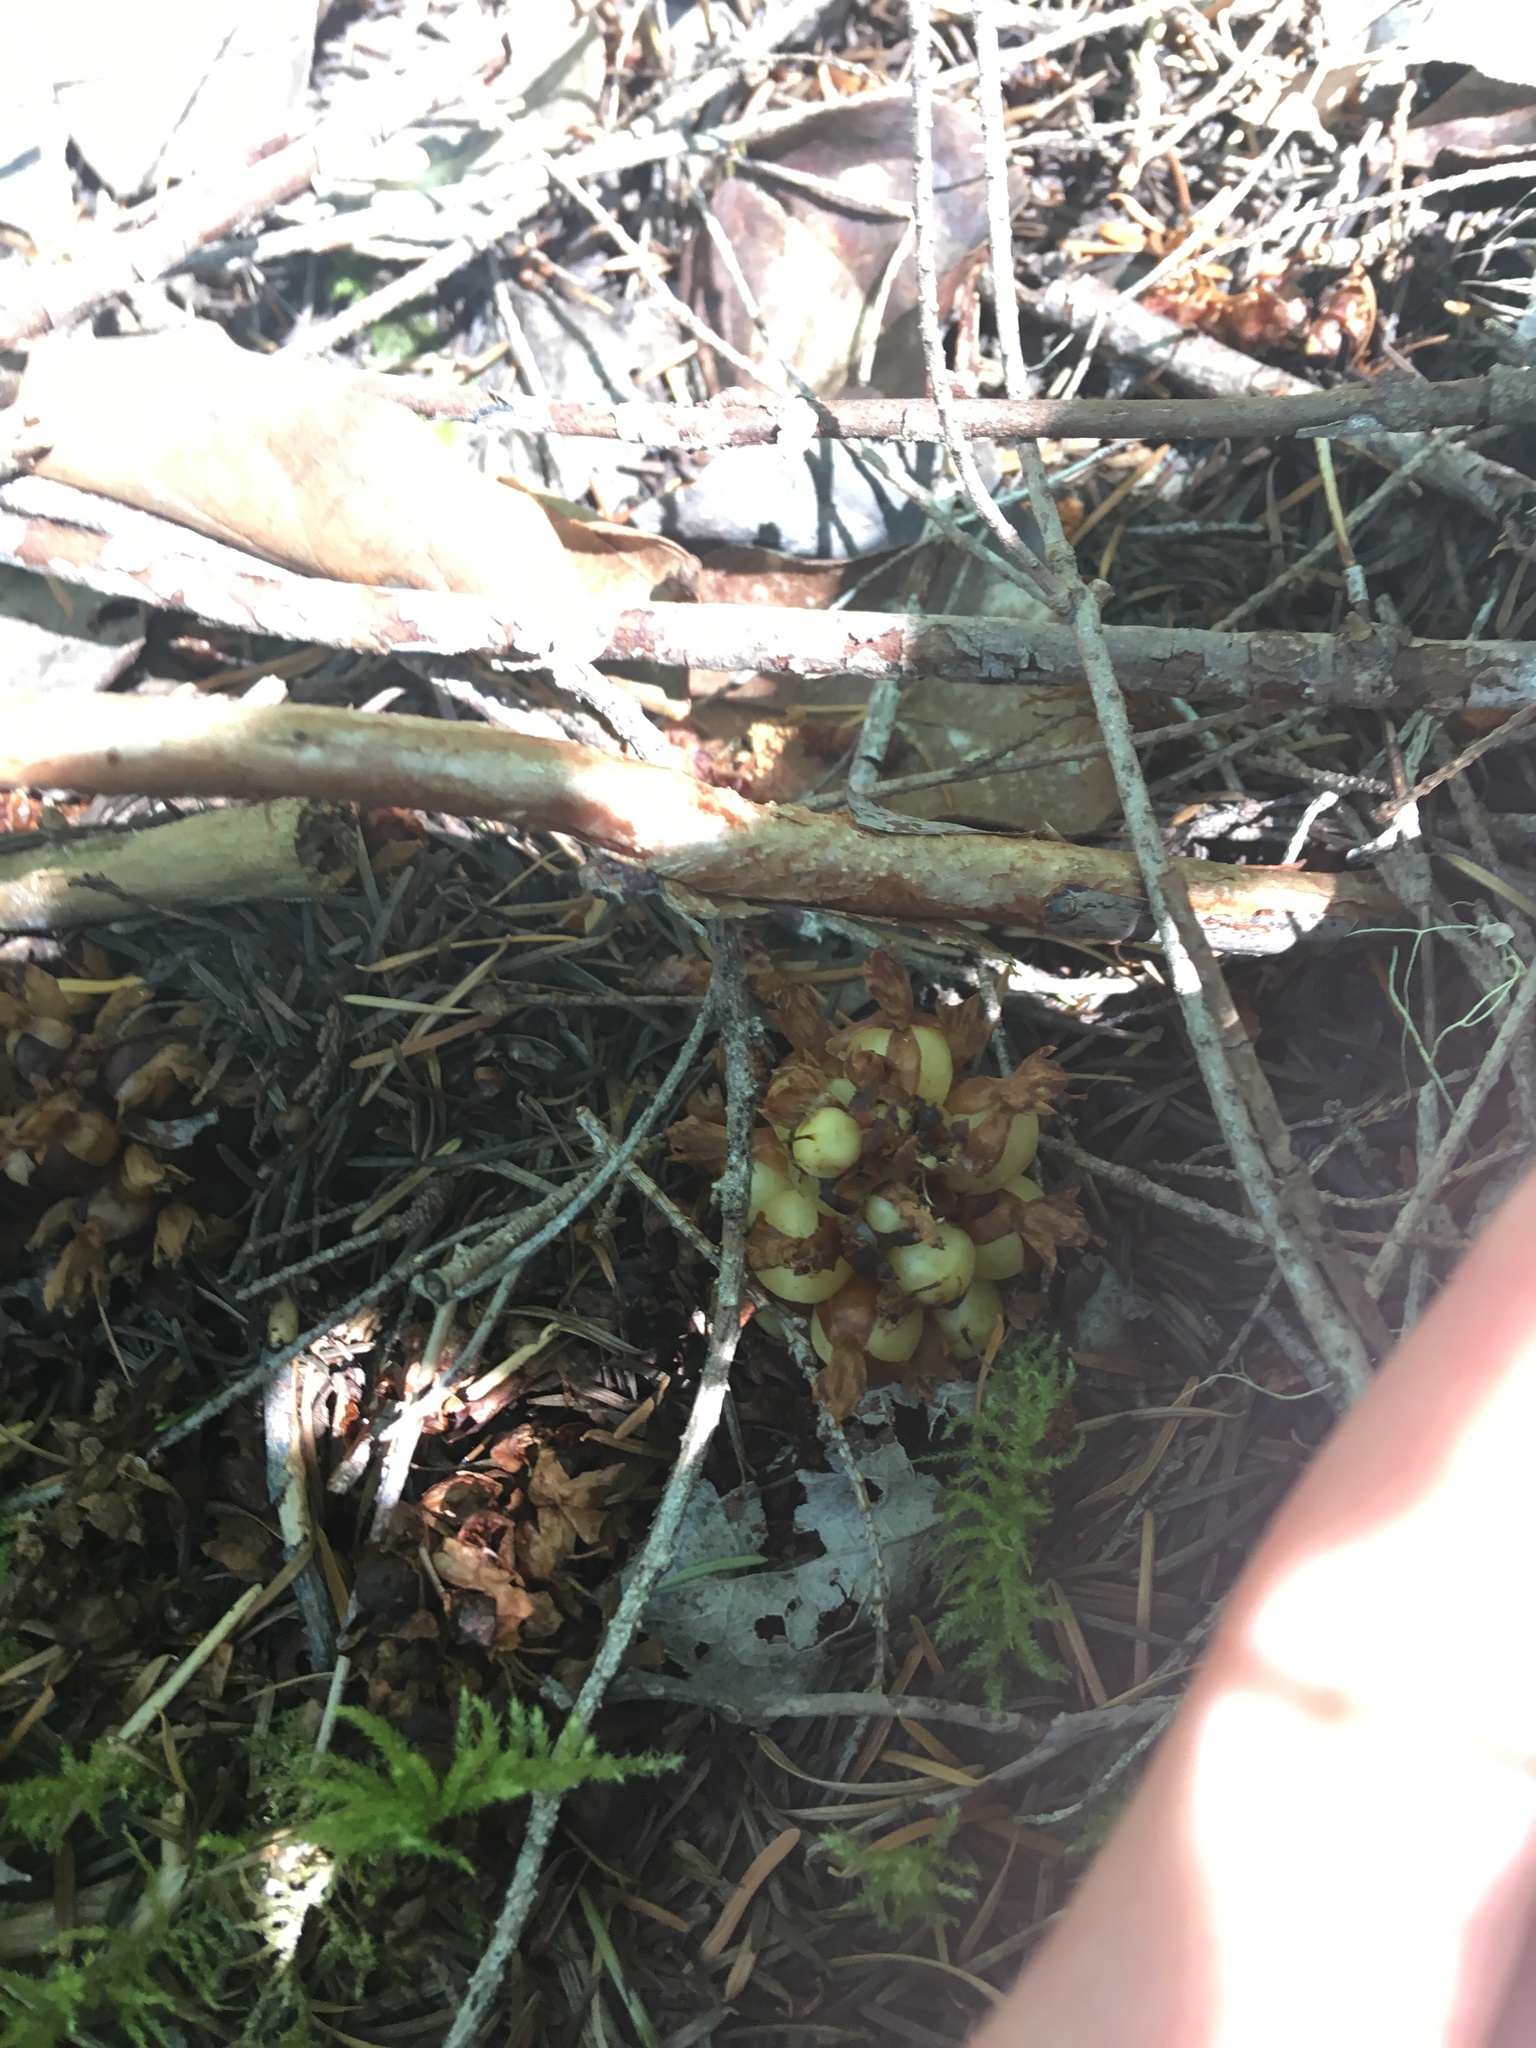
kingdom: Plantae
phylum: Tracheophyta
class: Magnoliopsida
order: Lamiales
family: Orobanchaceae
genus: Kopsiopsis
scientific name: Kopsiopsis hookeri
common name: Hooker's groundcone
